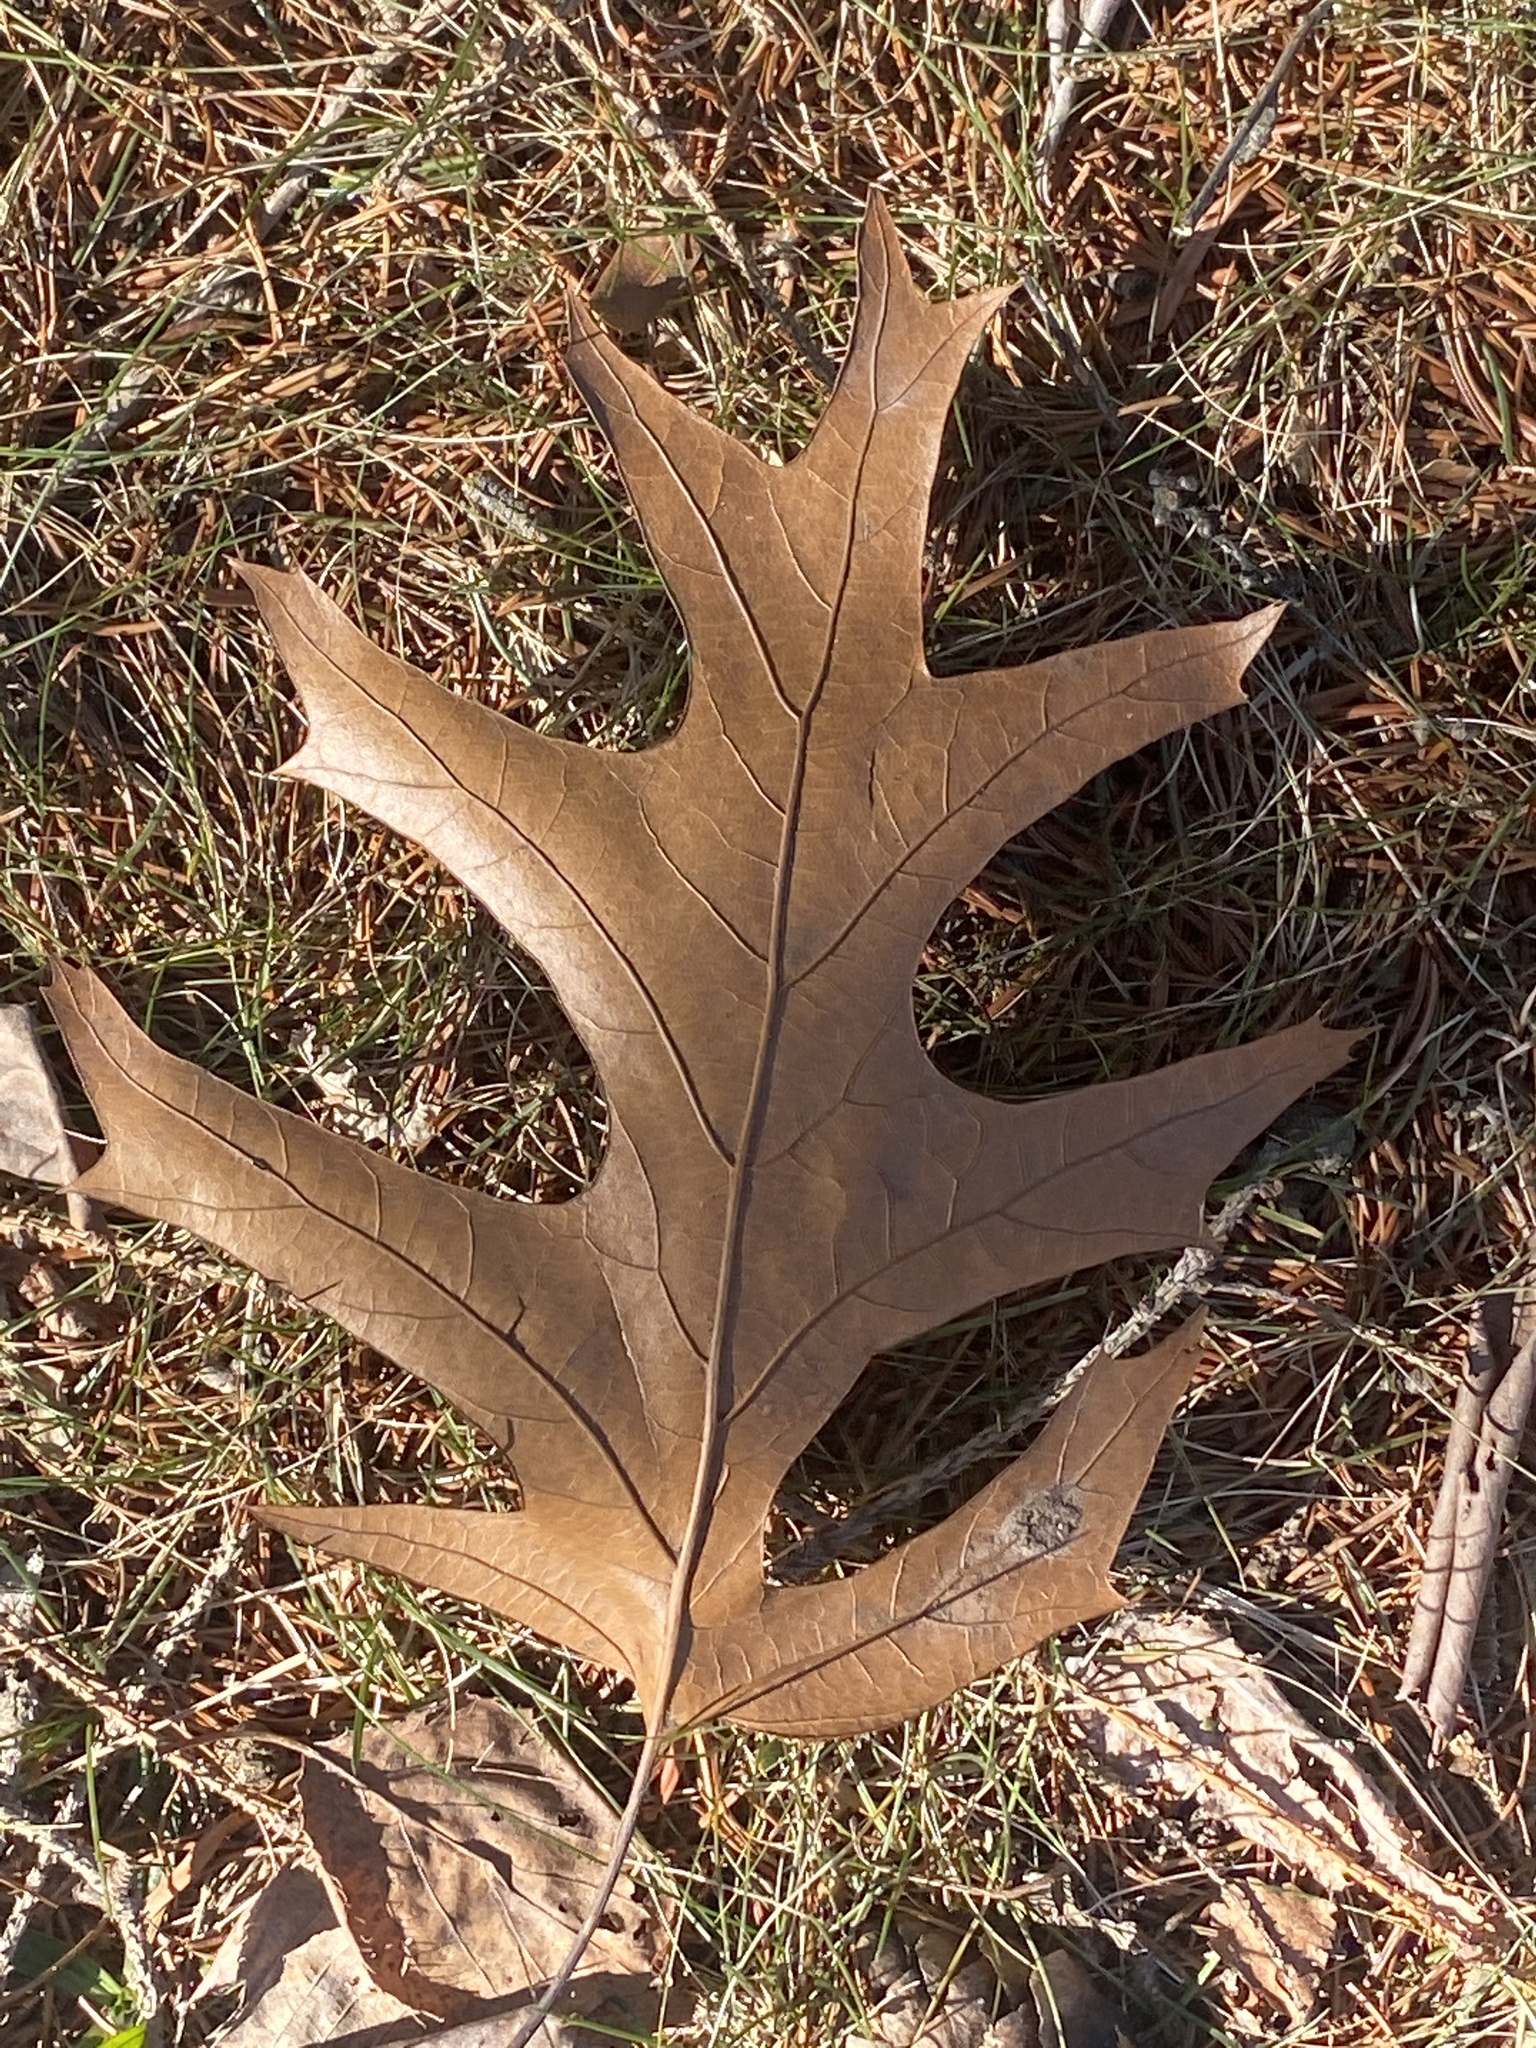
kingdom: Plantae
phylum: Tracheophyta
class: Magnoliopsida
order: Fagales
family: Fagaceae
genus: Quercus
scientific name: Quercus
